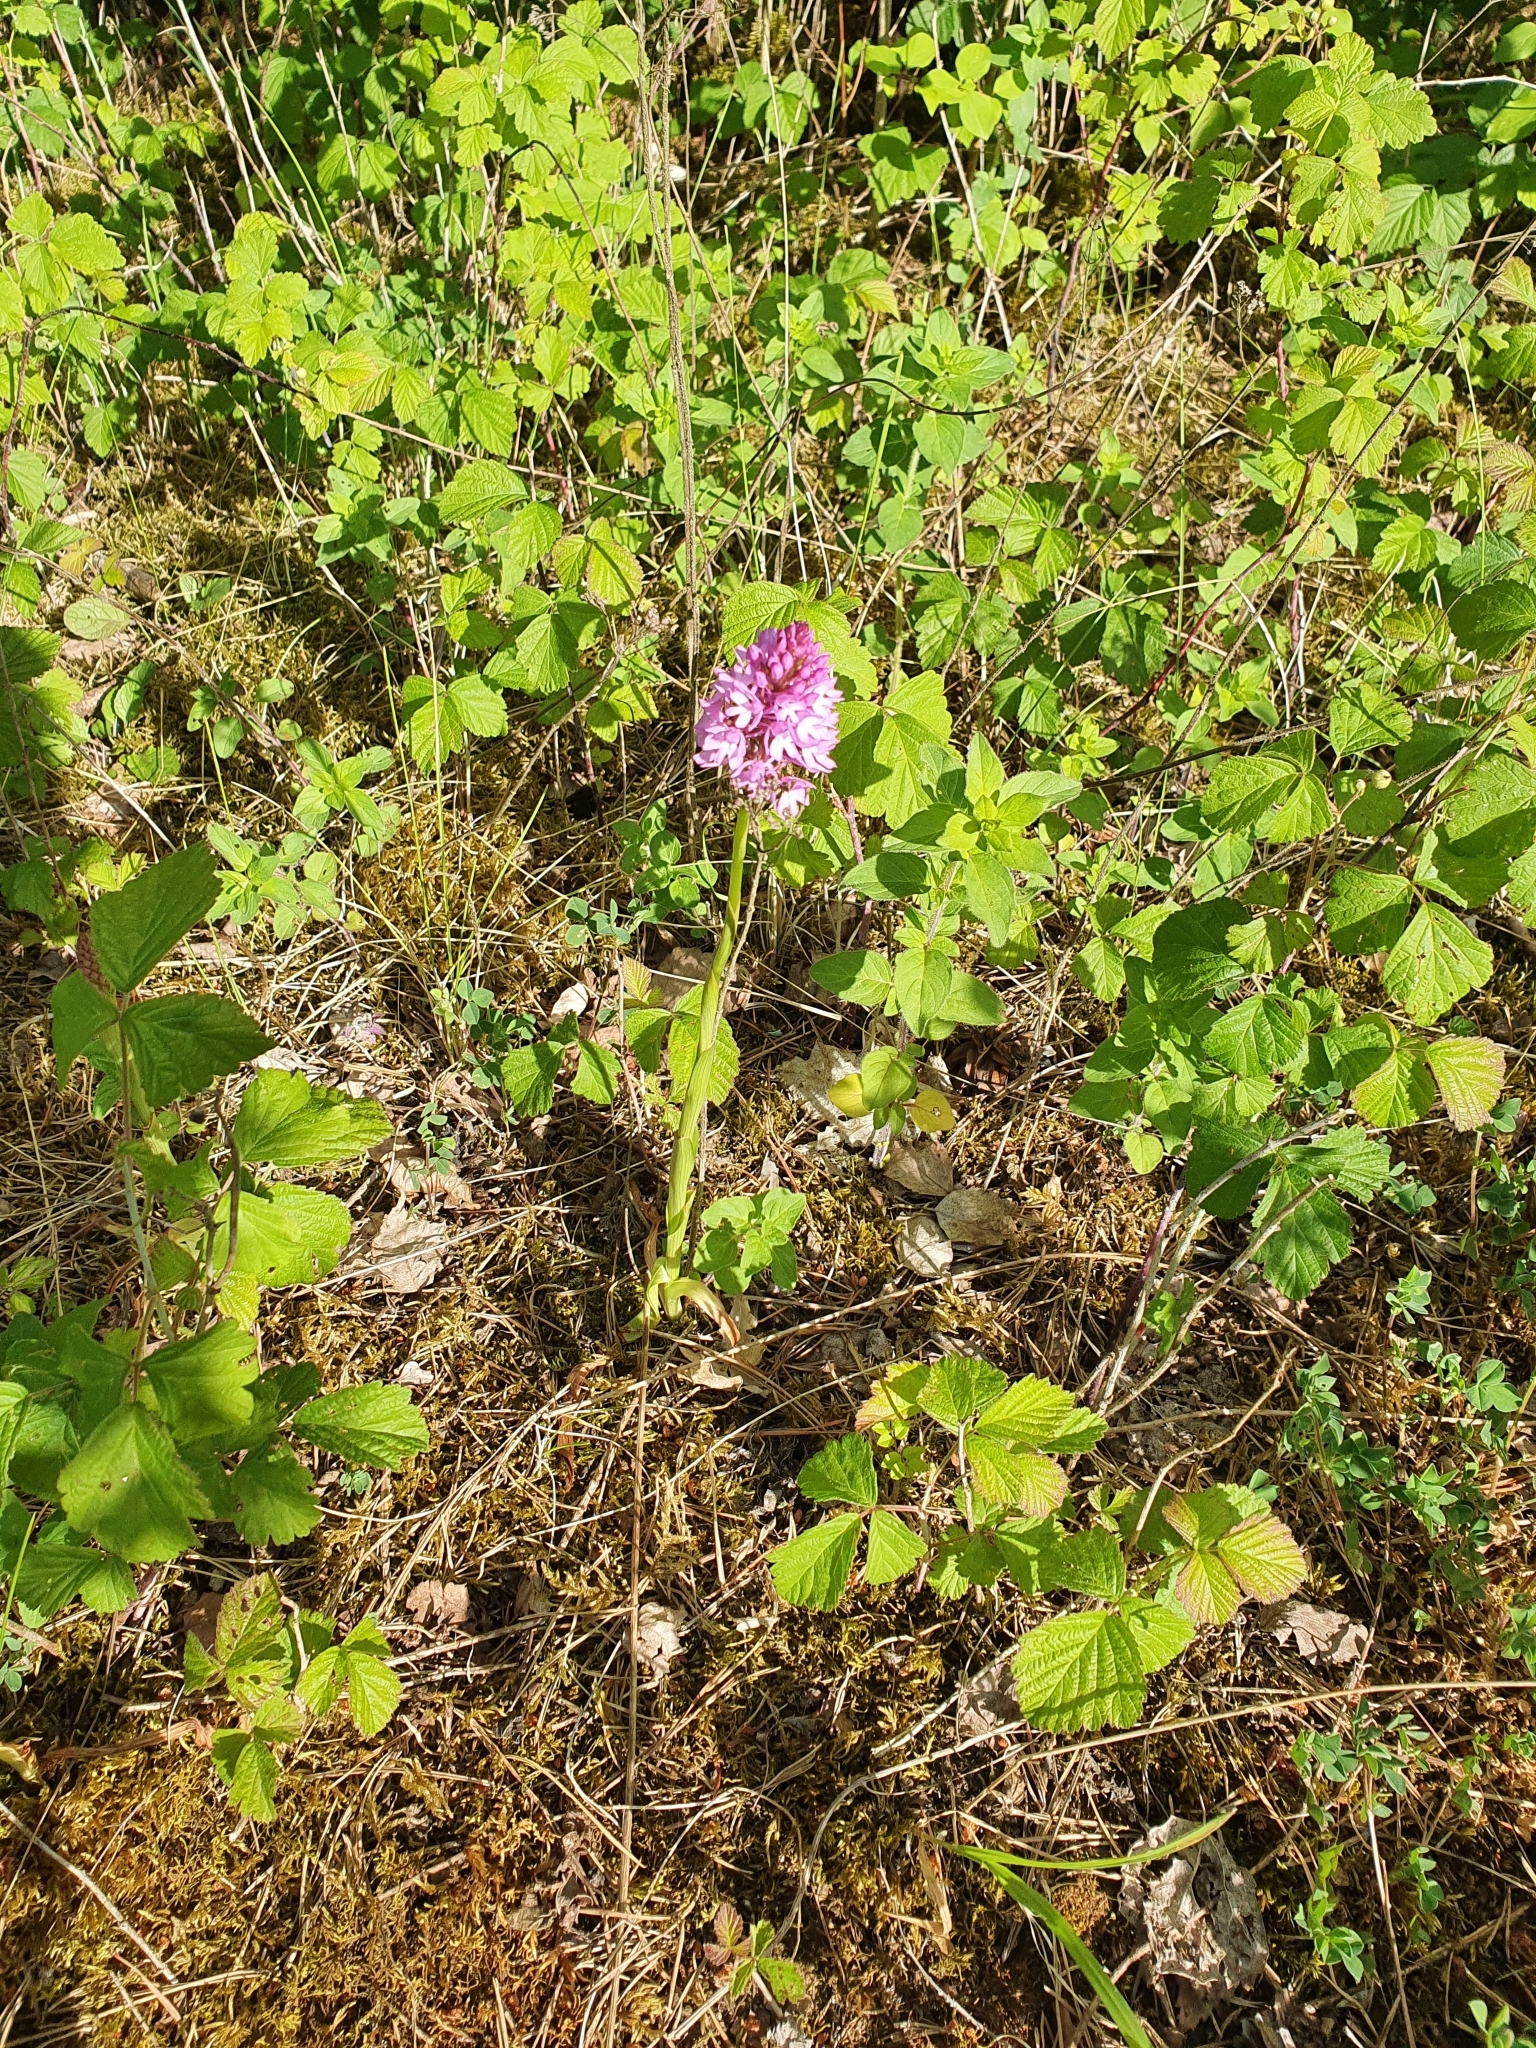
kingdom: Plantae
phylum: Tracheophyta
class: Liliopsida
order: Asparagales
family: Orchidaceae
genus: Anacamptis
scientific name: Anacamptis pyramidalis
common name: Pyramidal orchid
